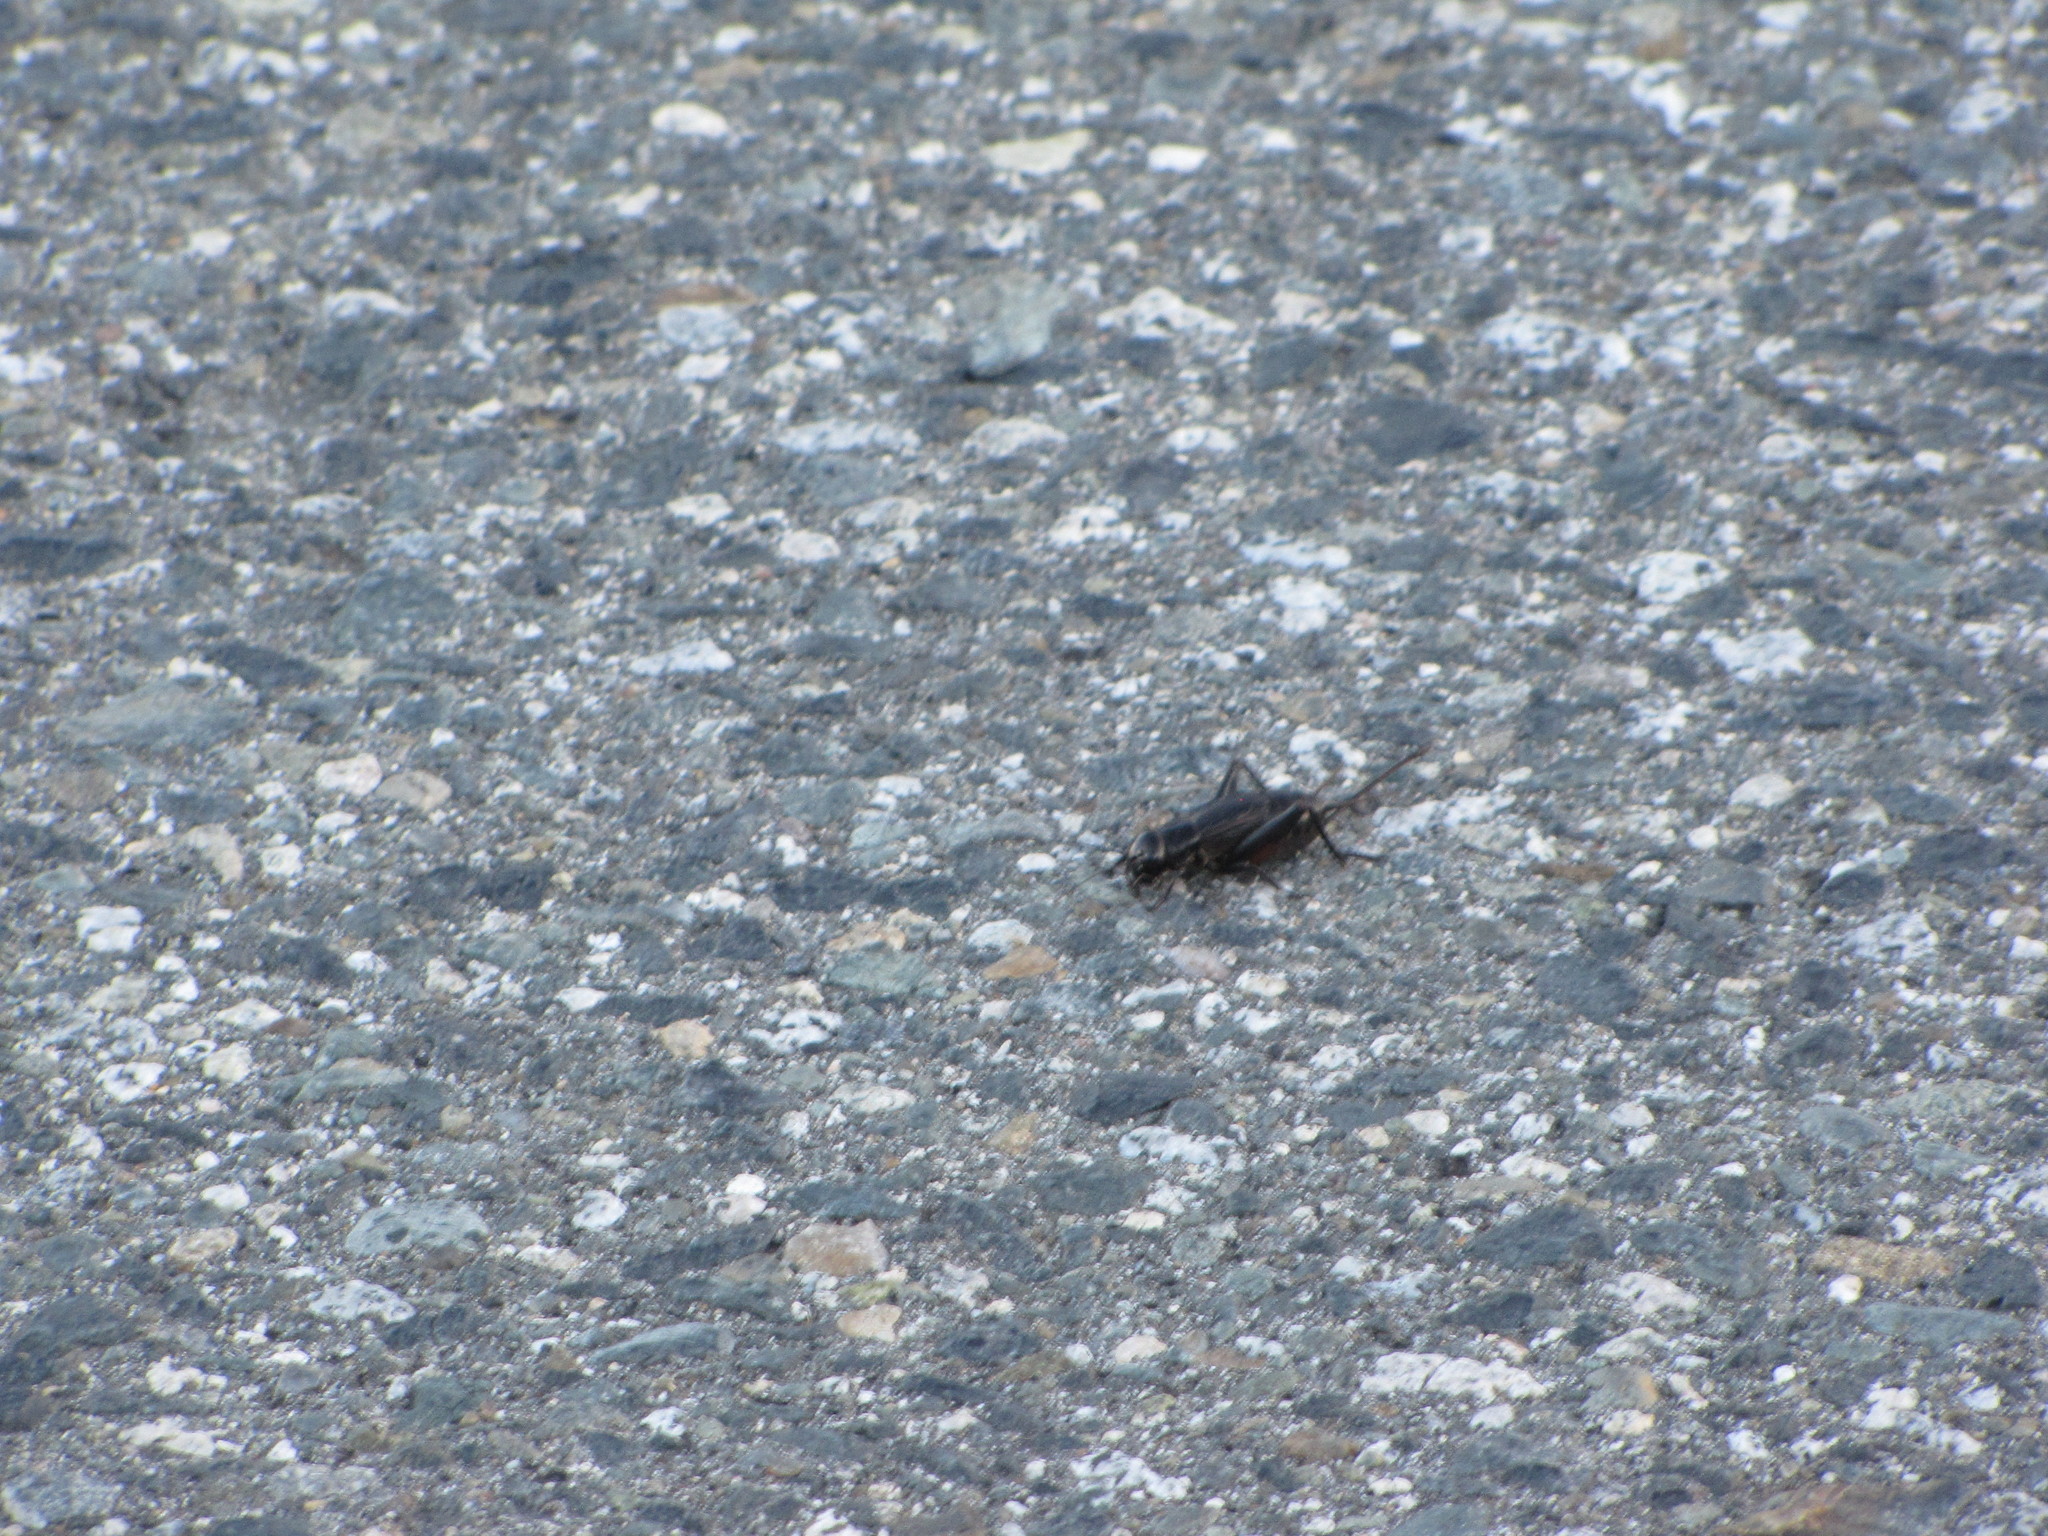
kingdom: Animalia
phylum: Arthropoda
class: Insecta
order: Orthoptera
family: Gryllidae
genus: Gryllus
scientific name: Gryllus pennsylvanicus
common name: Fall field cricket
